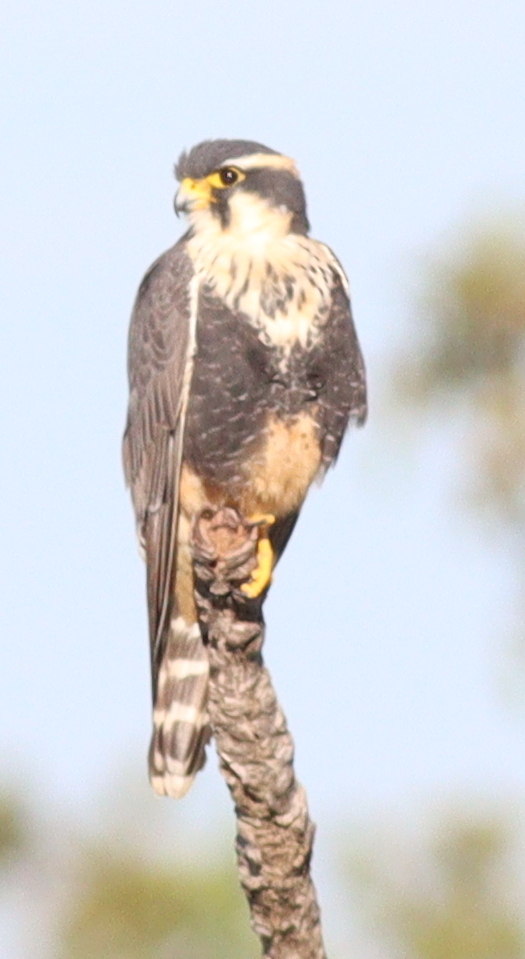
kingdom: Animalia
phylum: Chordata
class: Aves
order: Falconiformes
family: Falconidae
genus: Falco
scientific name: Falco femoralis
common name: Aplomado falcon
